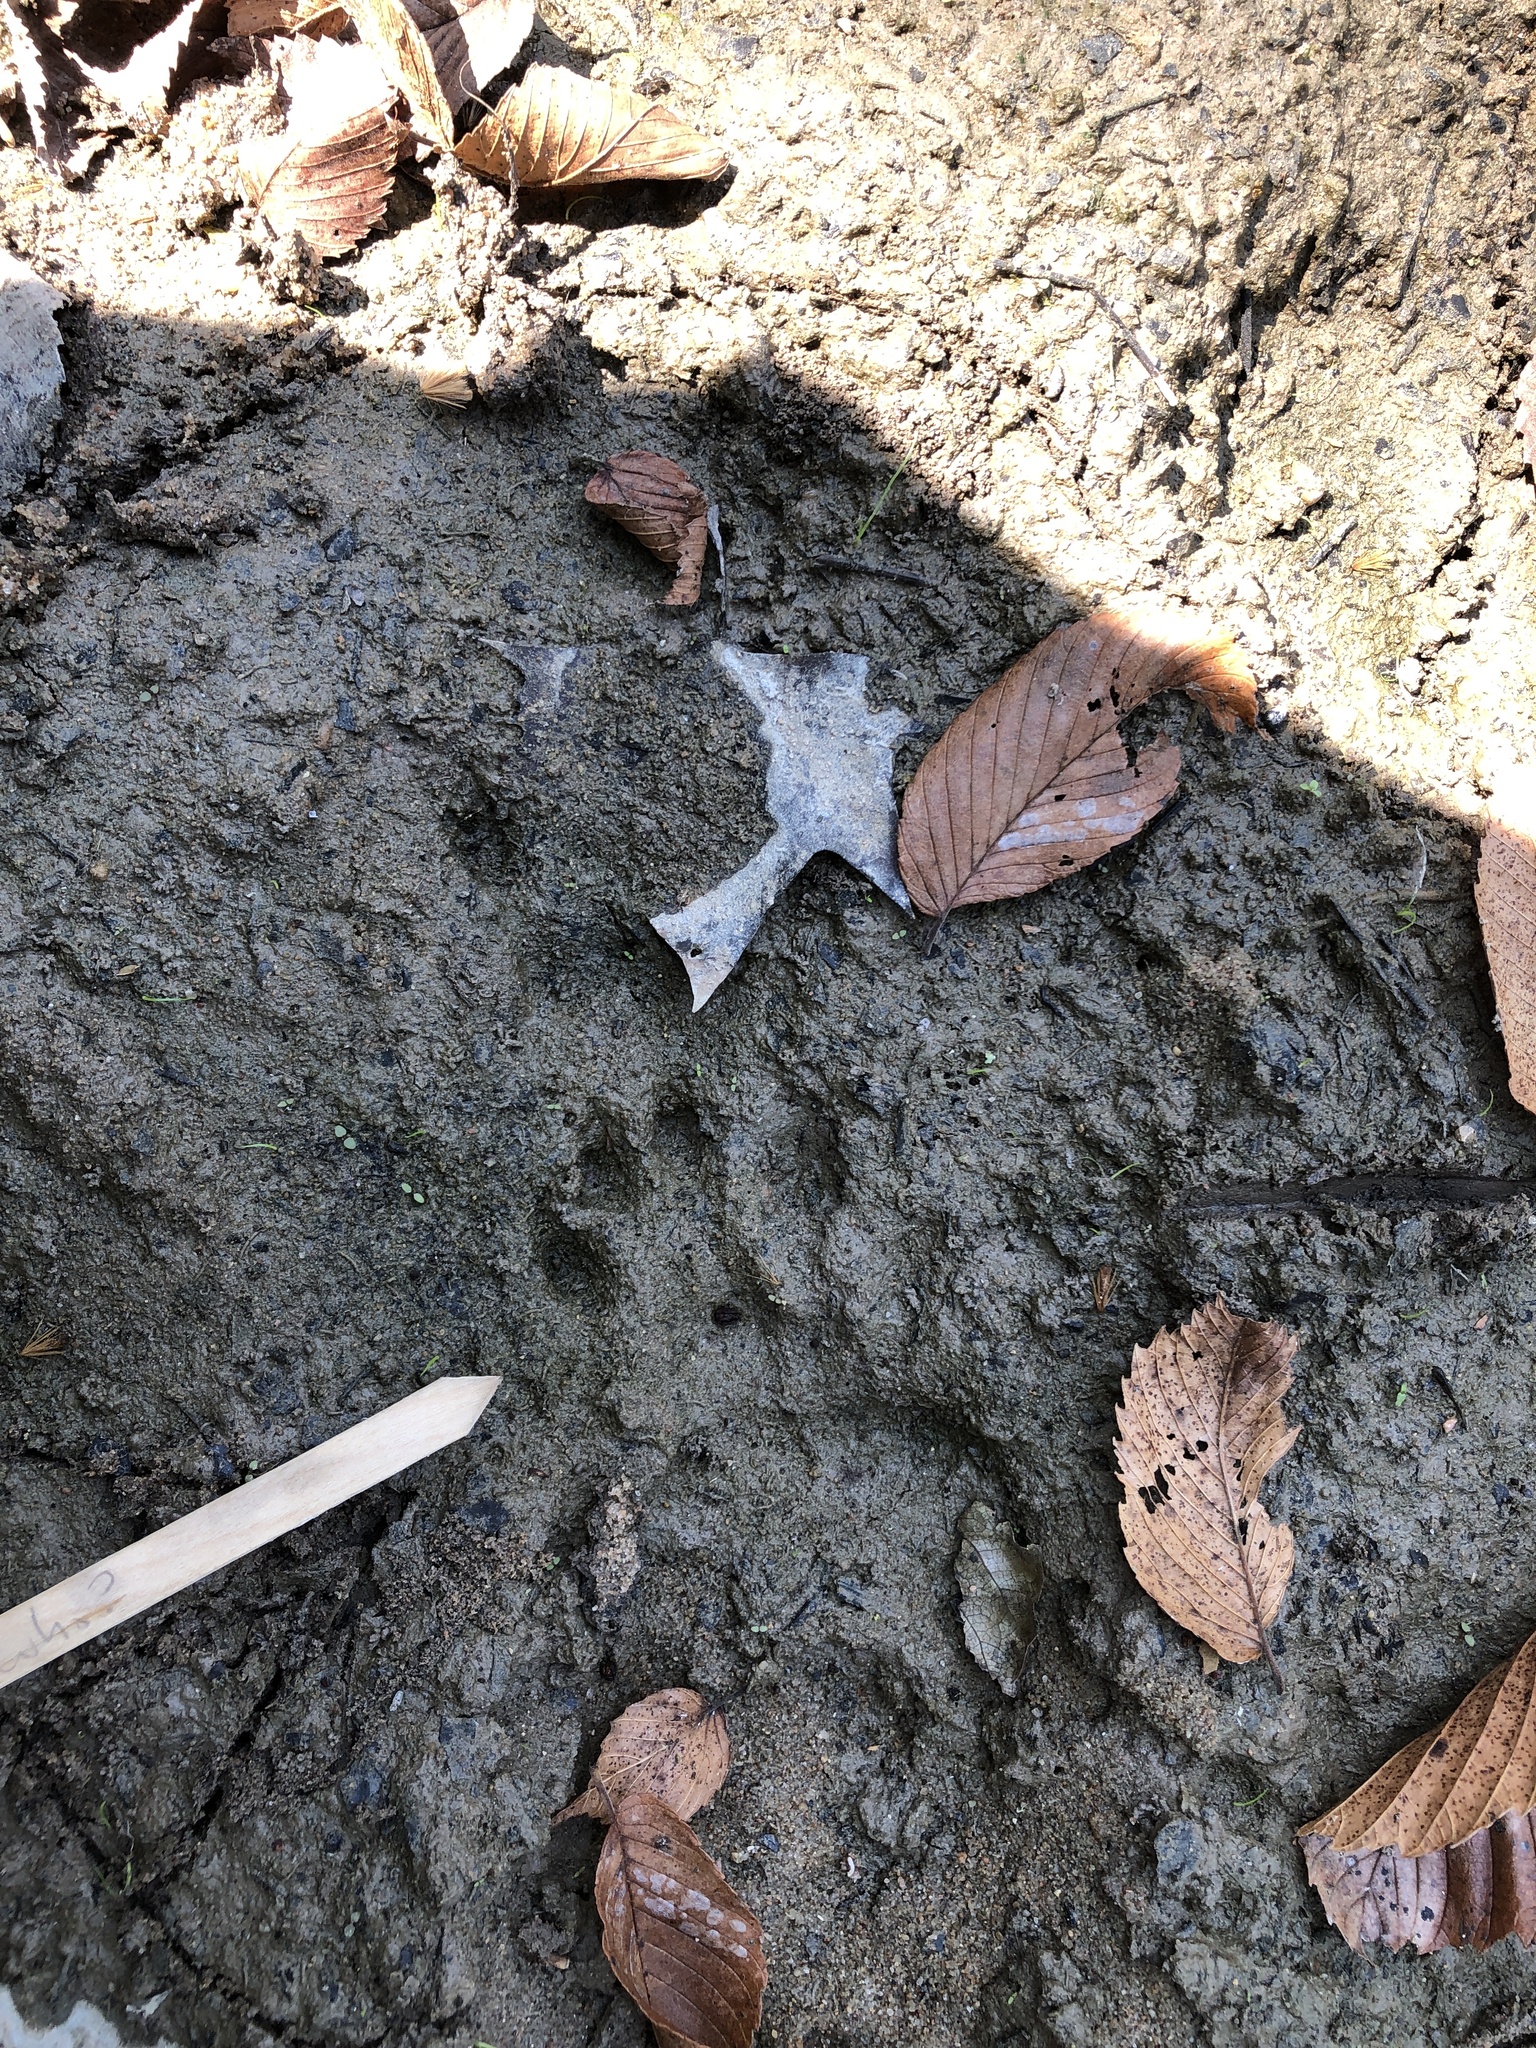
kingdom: Animalia
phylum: Chordata
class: Mammalia
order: Carnivora
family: Mustelidae
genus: Lontra
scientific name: Lontra canadensis
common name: North american river otter
